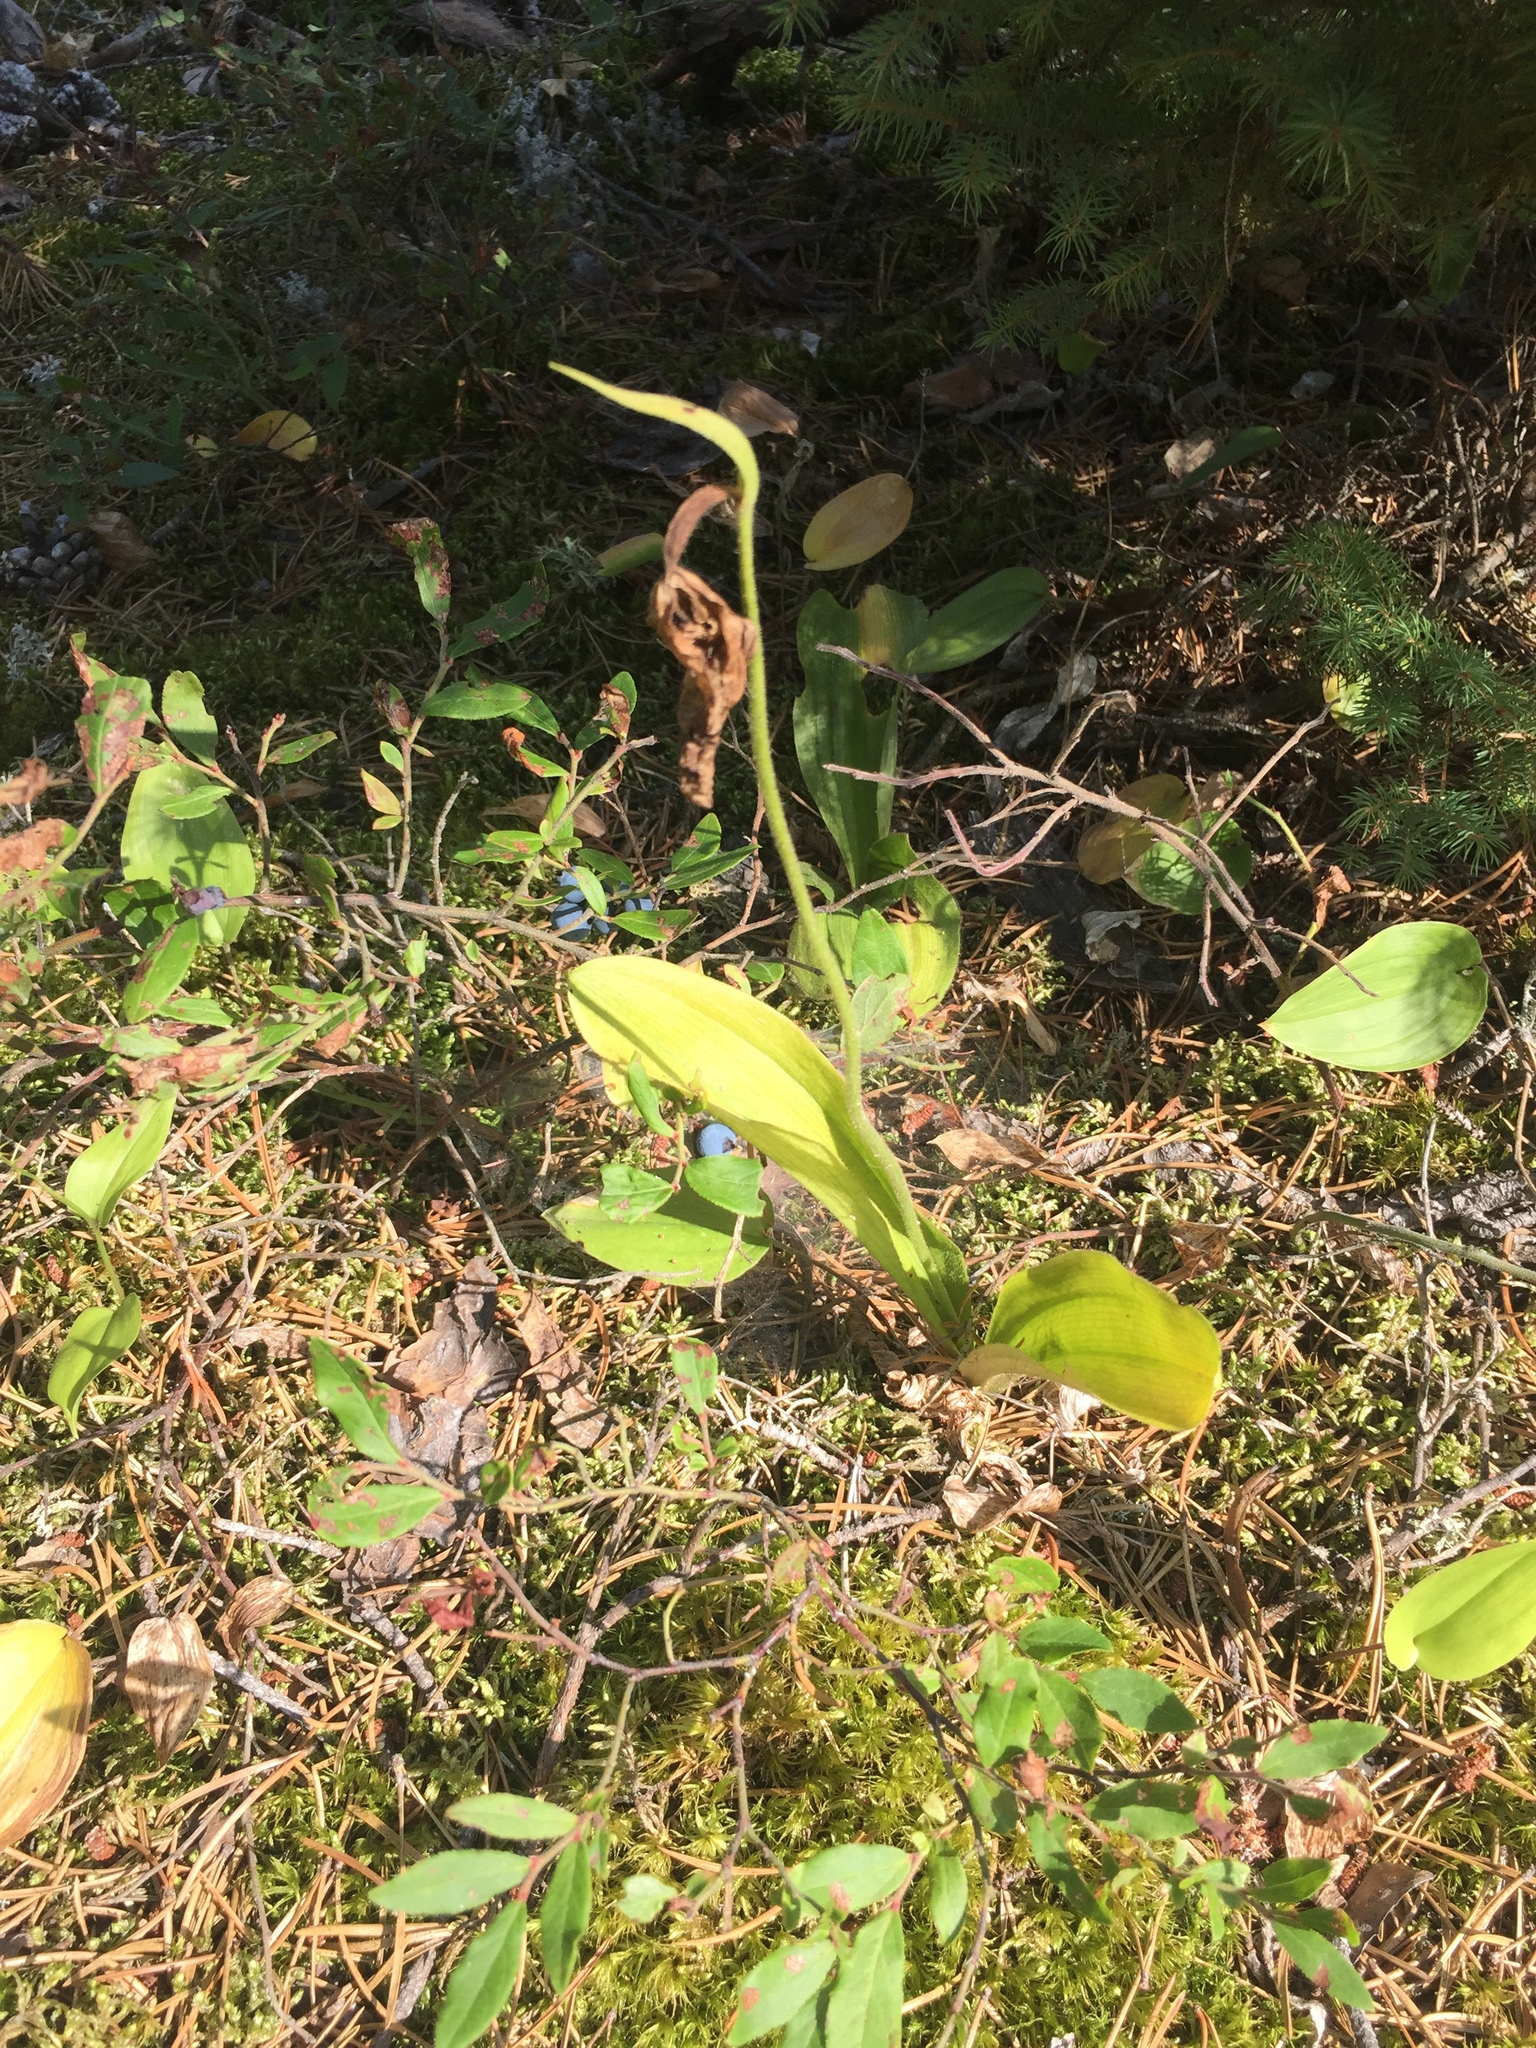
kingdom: Plantae
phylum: Tracheophyta
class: Liliopsida
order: Asparagales
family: Orchidaceae
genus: Cypripedium
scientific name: Cypripedium acaule
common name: Pink lady's-slipper
